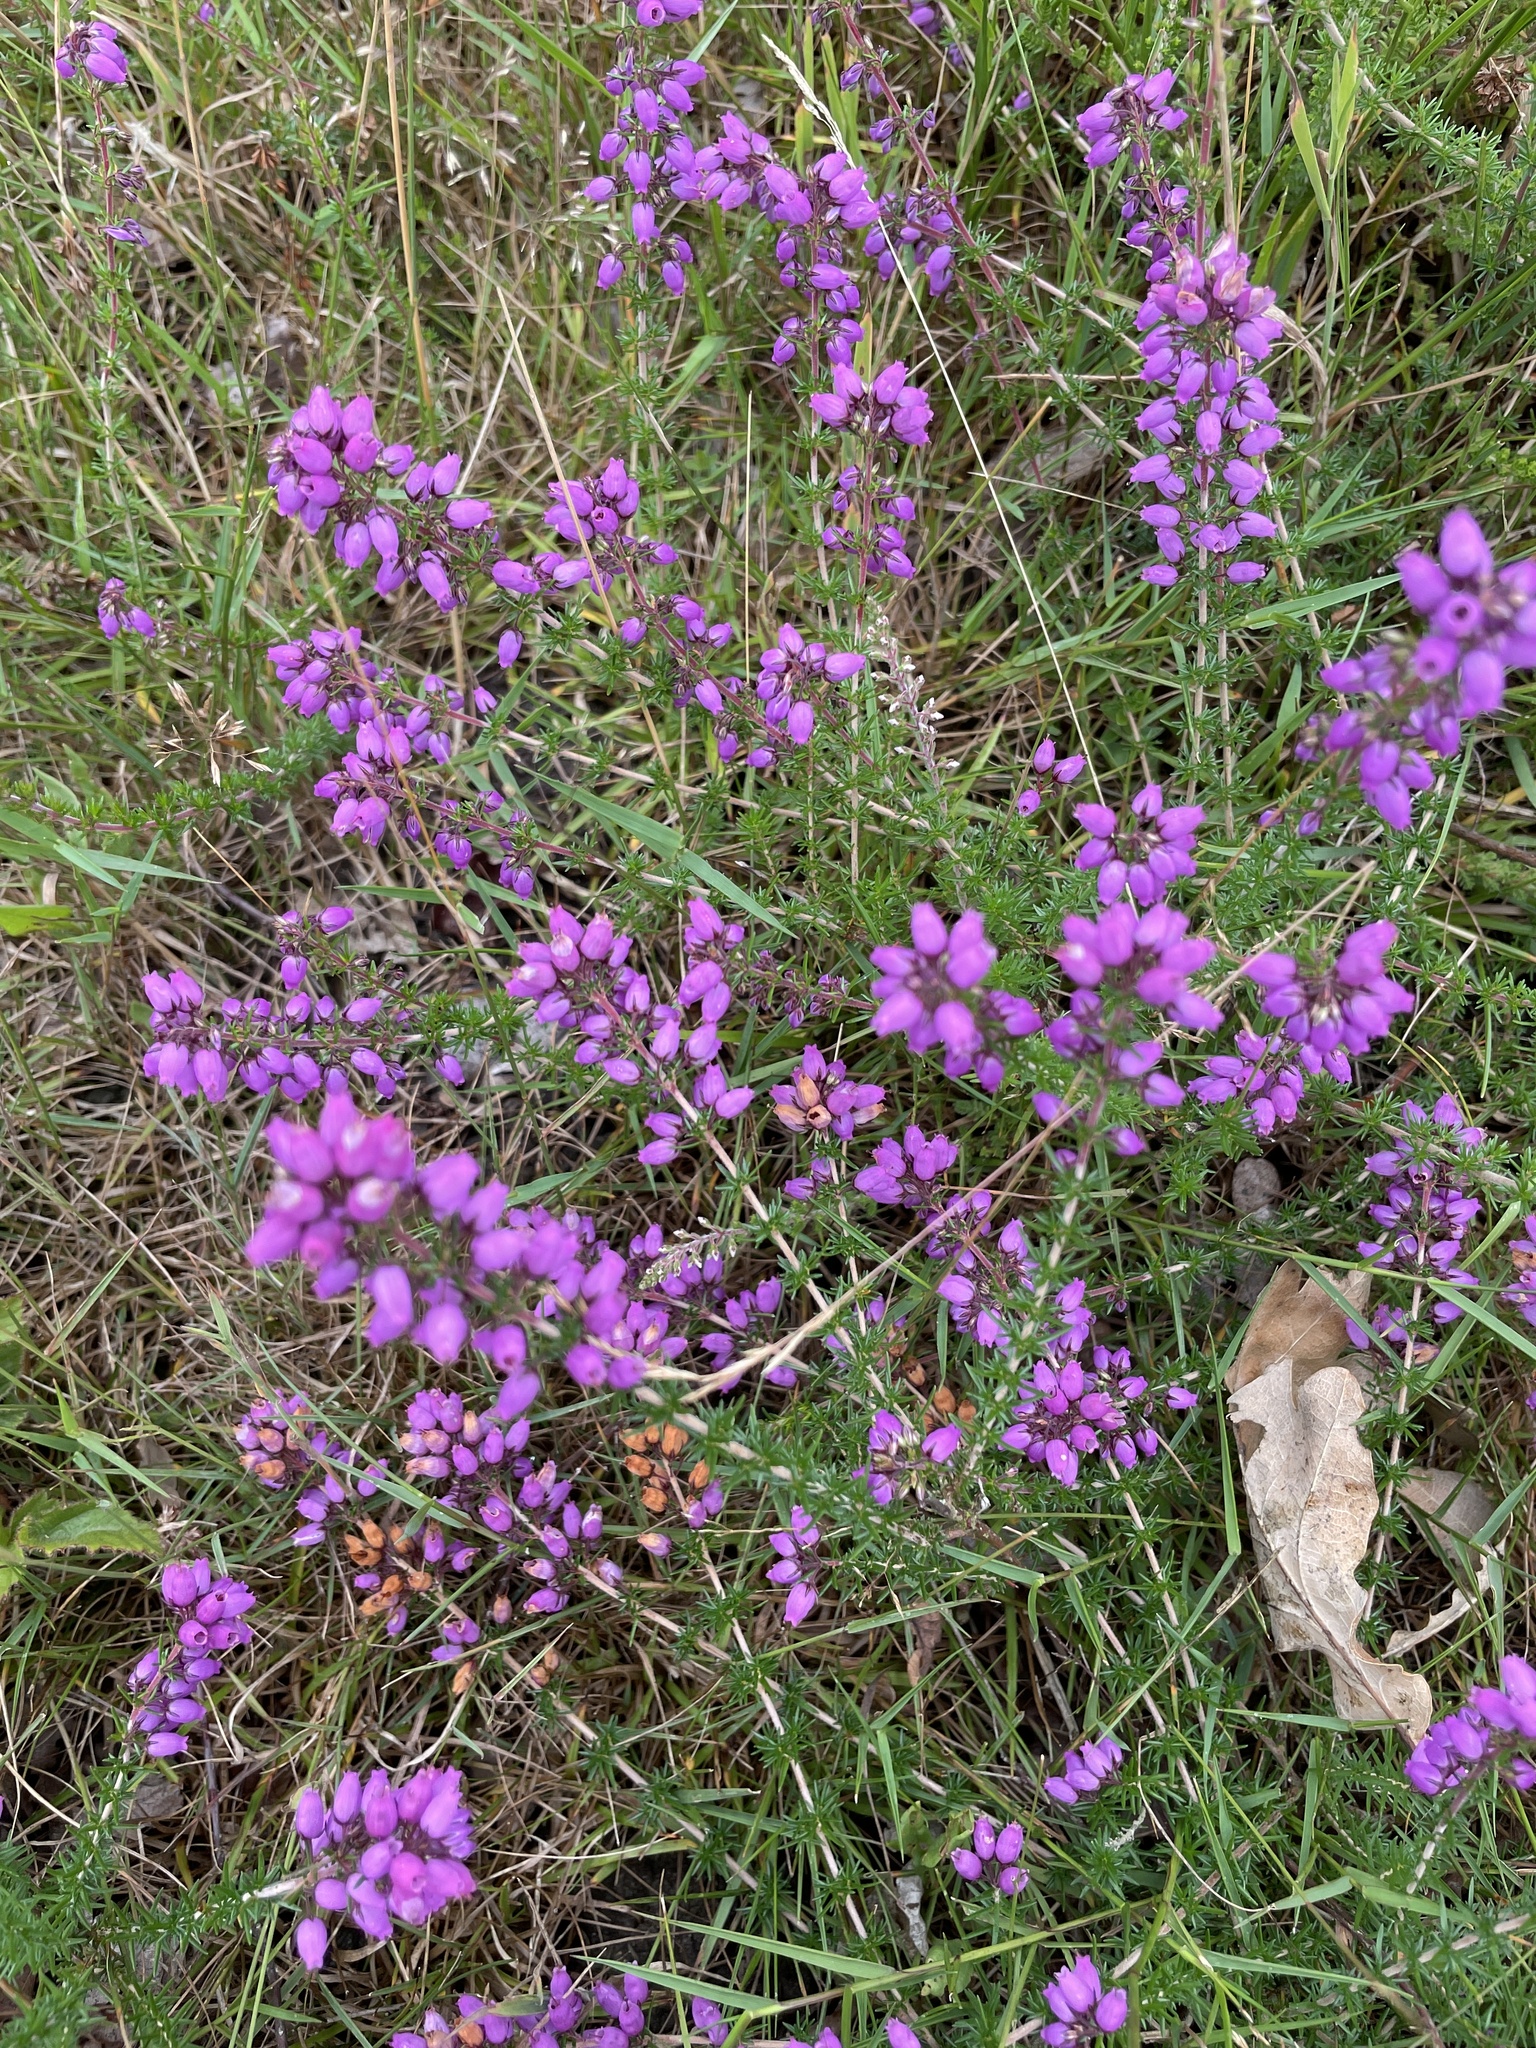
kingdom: Plantae
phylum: Tracheophyta
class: Magnoliopsida
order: Ericales
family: Ericaceae
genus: Erica
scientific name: Erica cinerea
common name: Bell heather
